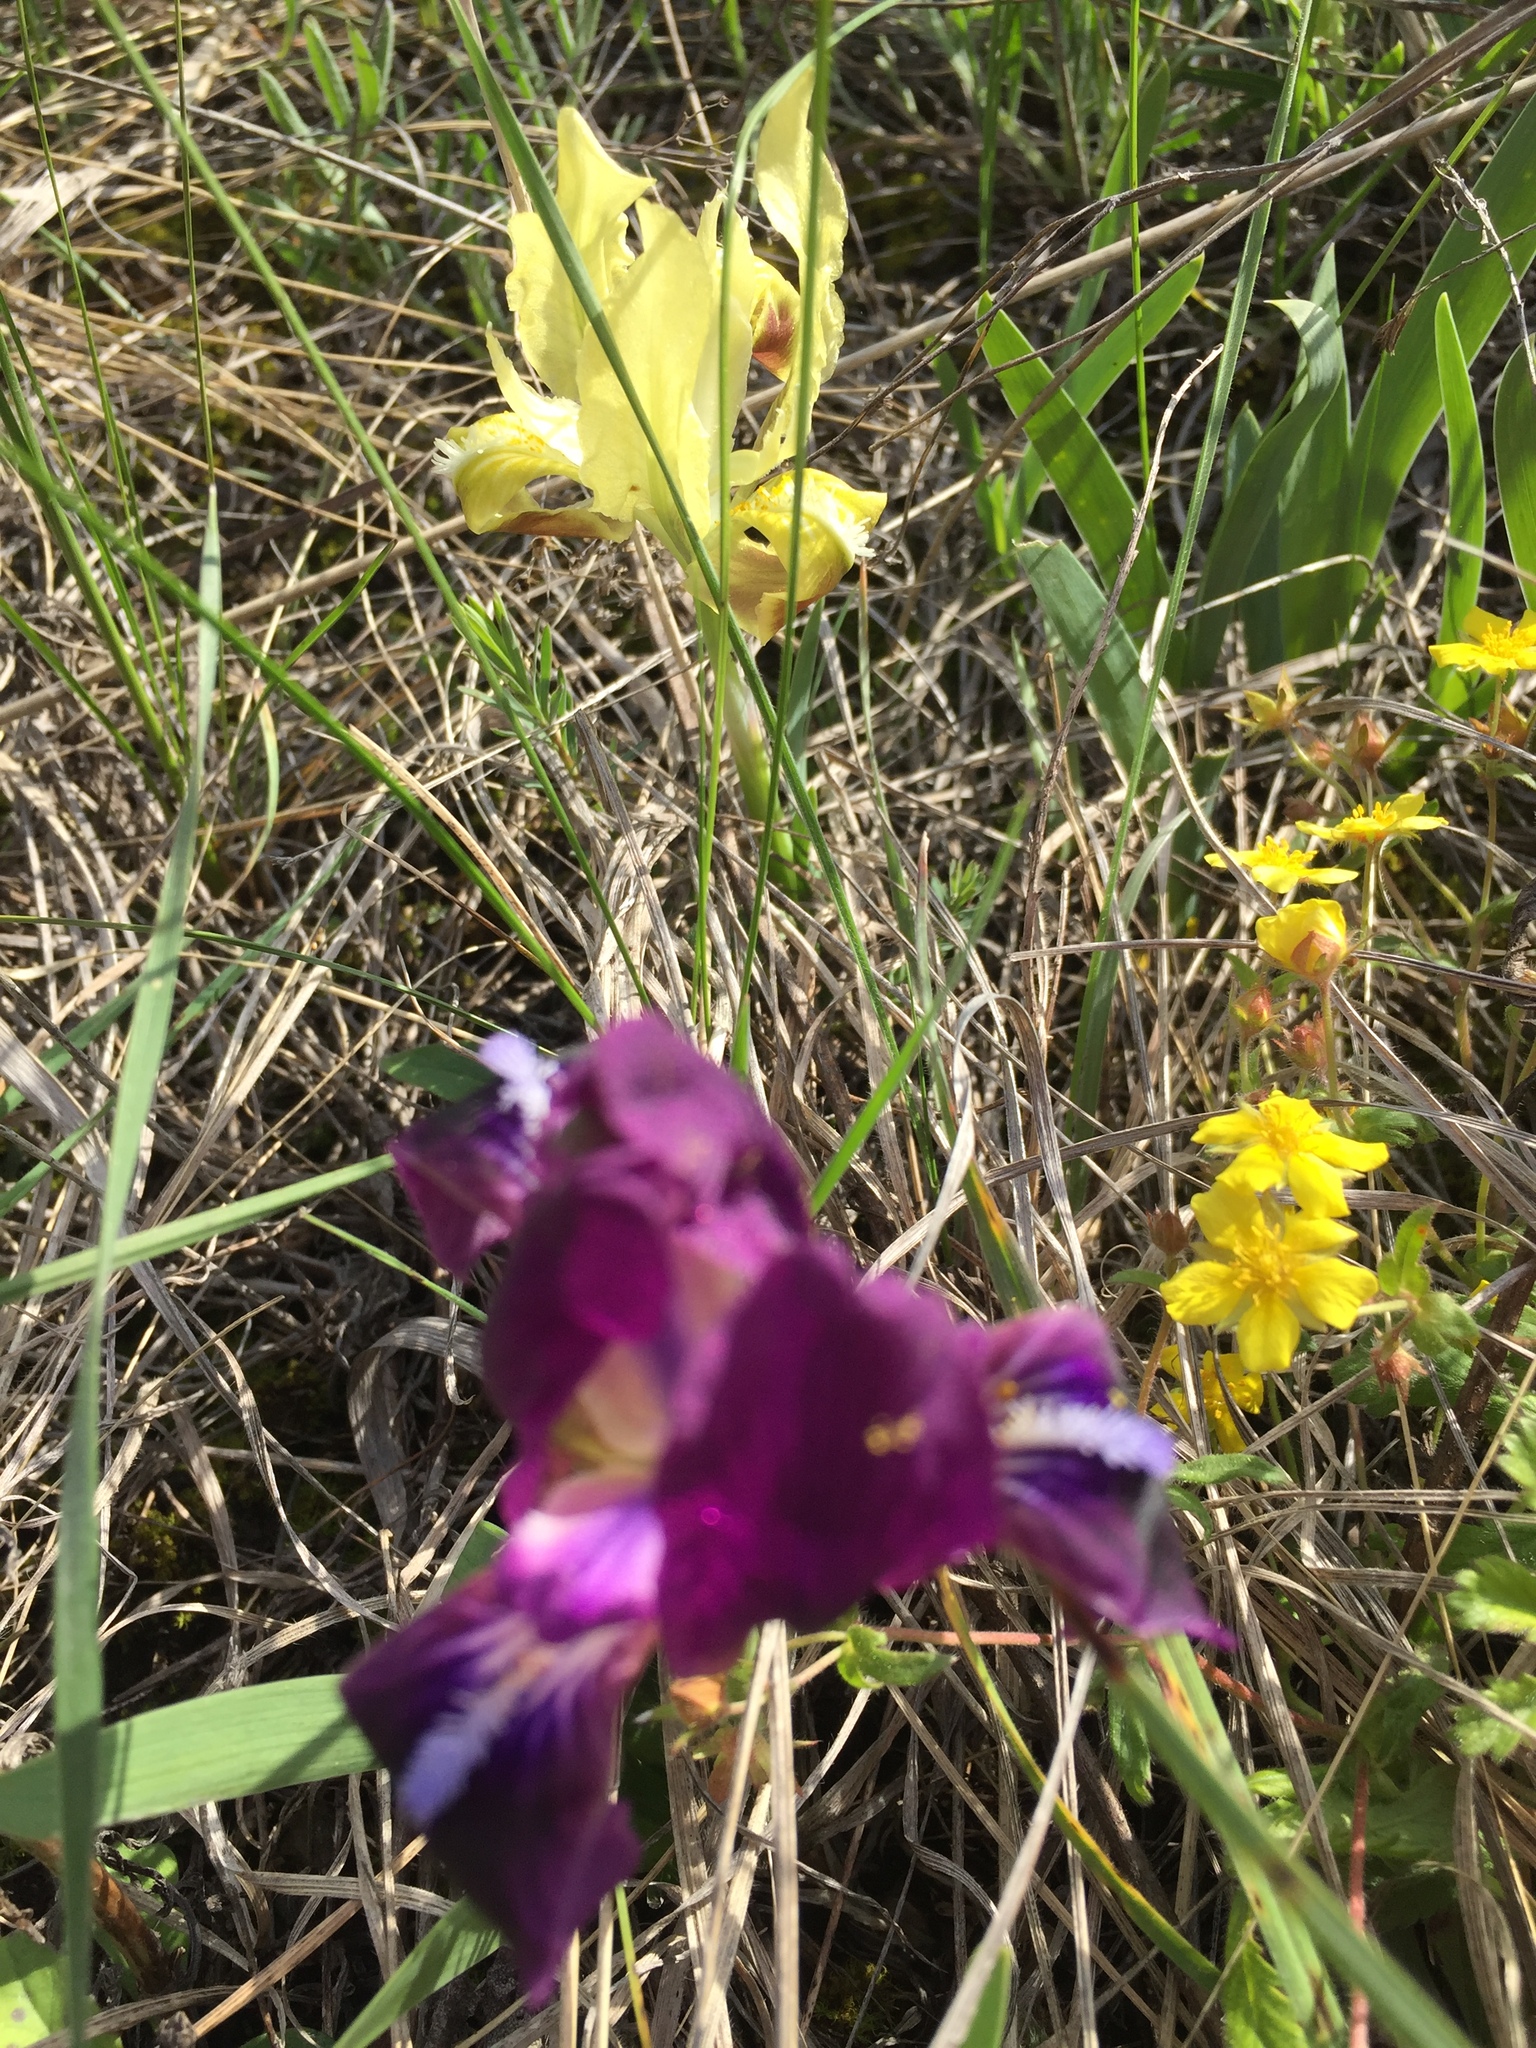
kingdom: Plantae
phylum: Tracheophyta
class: Liliopsida
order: Asparagales
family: Iridaceae
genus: Iris
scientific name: Iris pumila
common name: Dwarf iris
